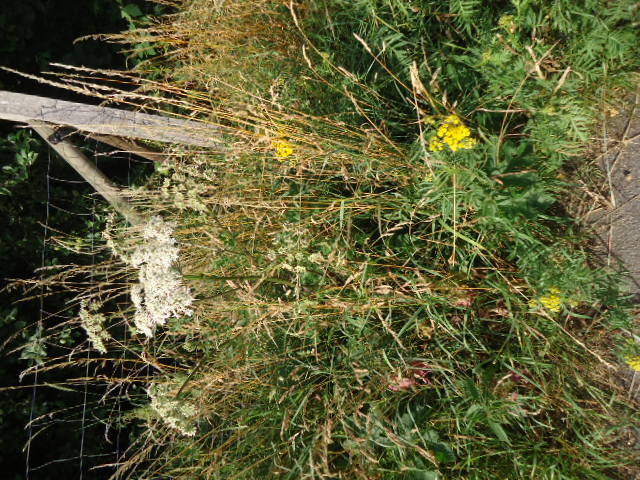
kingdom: Plantae
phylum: Tracheophyta
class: Magnoliopsida
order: Apiales
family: Apiaceae
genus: Heracleum
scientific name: Heracleum sphondylium
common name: Hogweed
